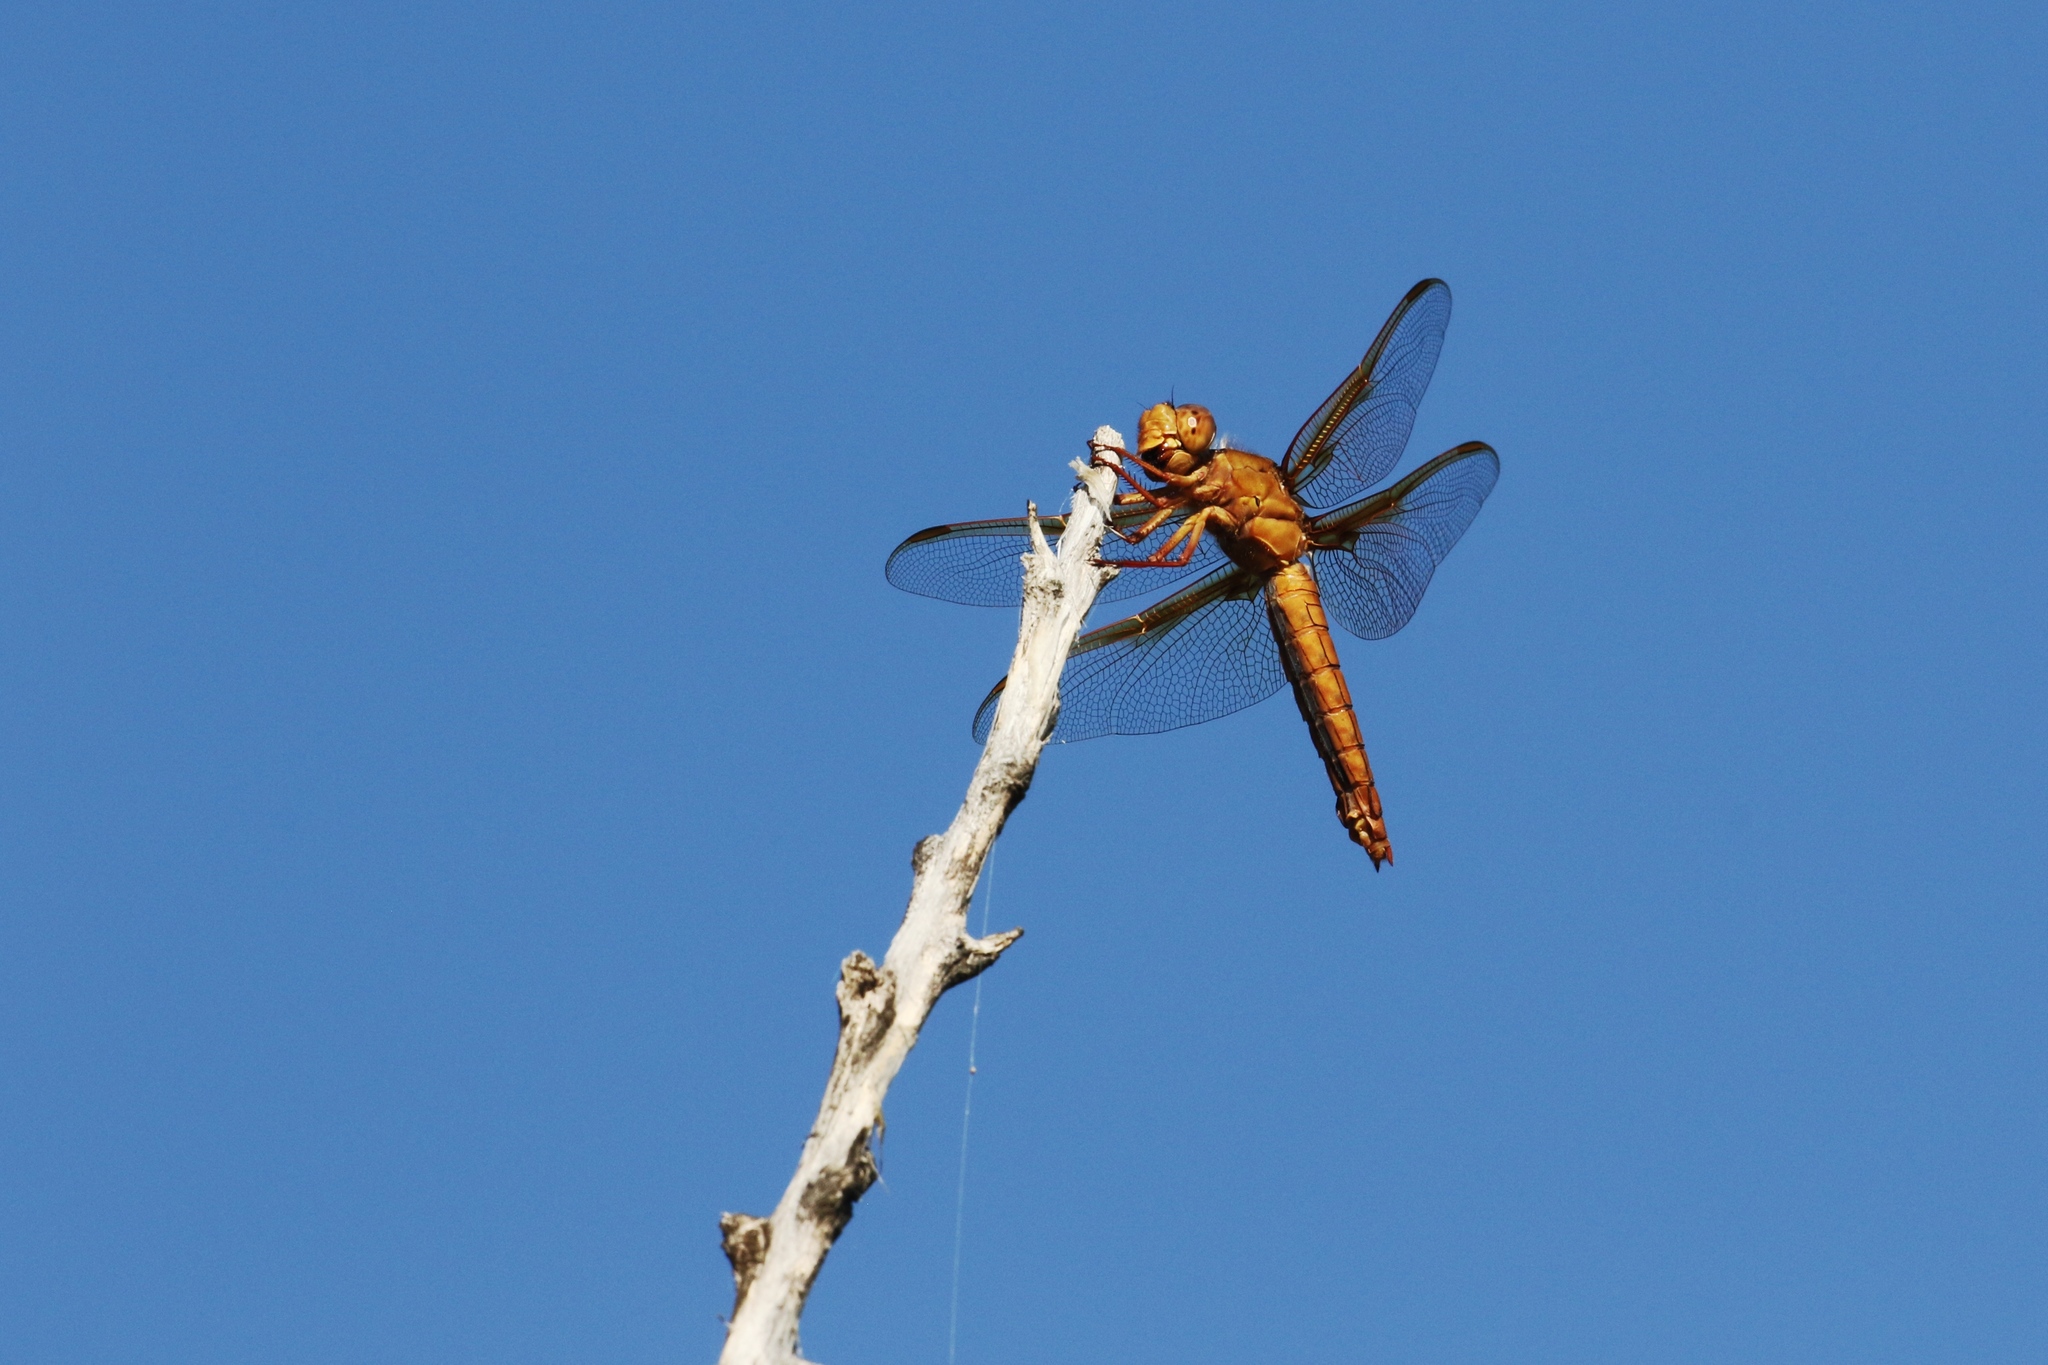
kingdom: Animalia
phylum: Arthropoda
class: Insecta
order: Odonata
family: Libellulidae
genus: Libellula
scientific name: Libellula saturata
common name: Flame skimmer
